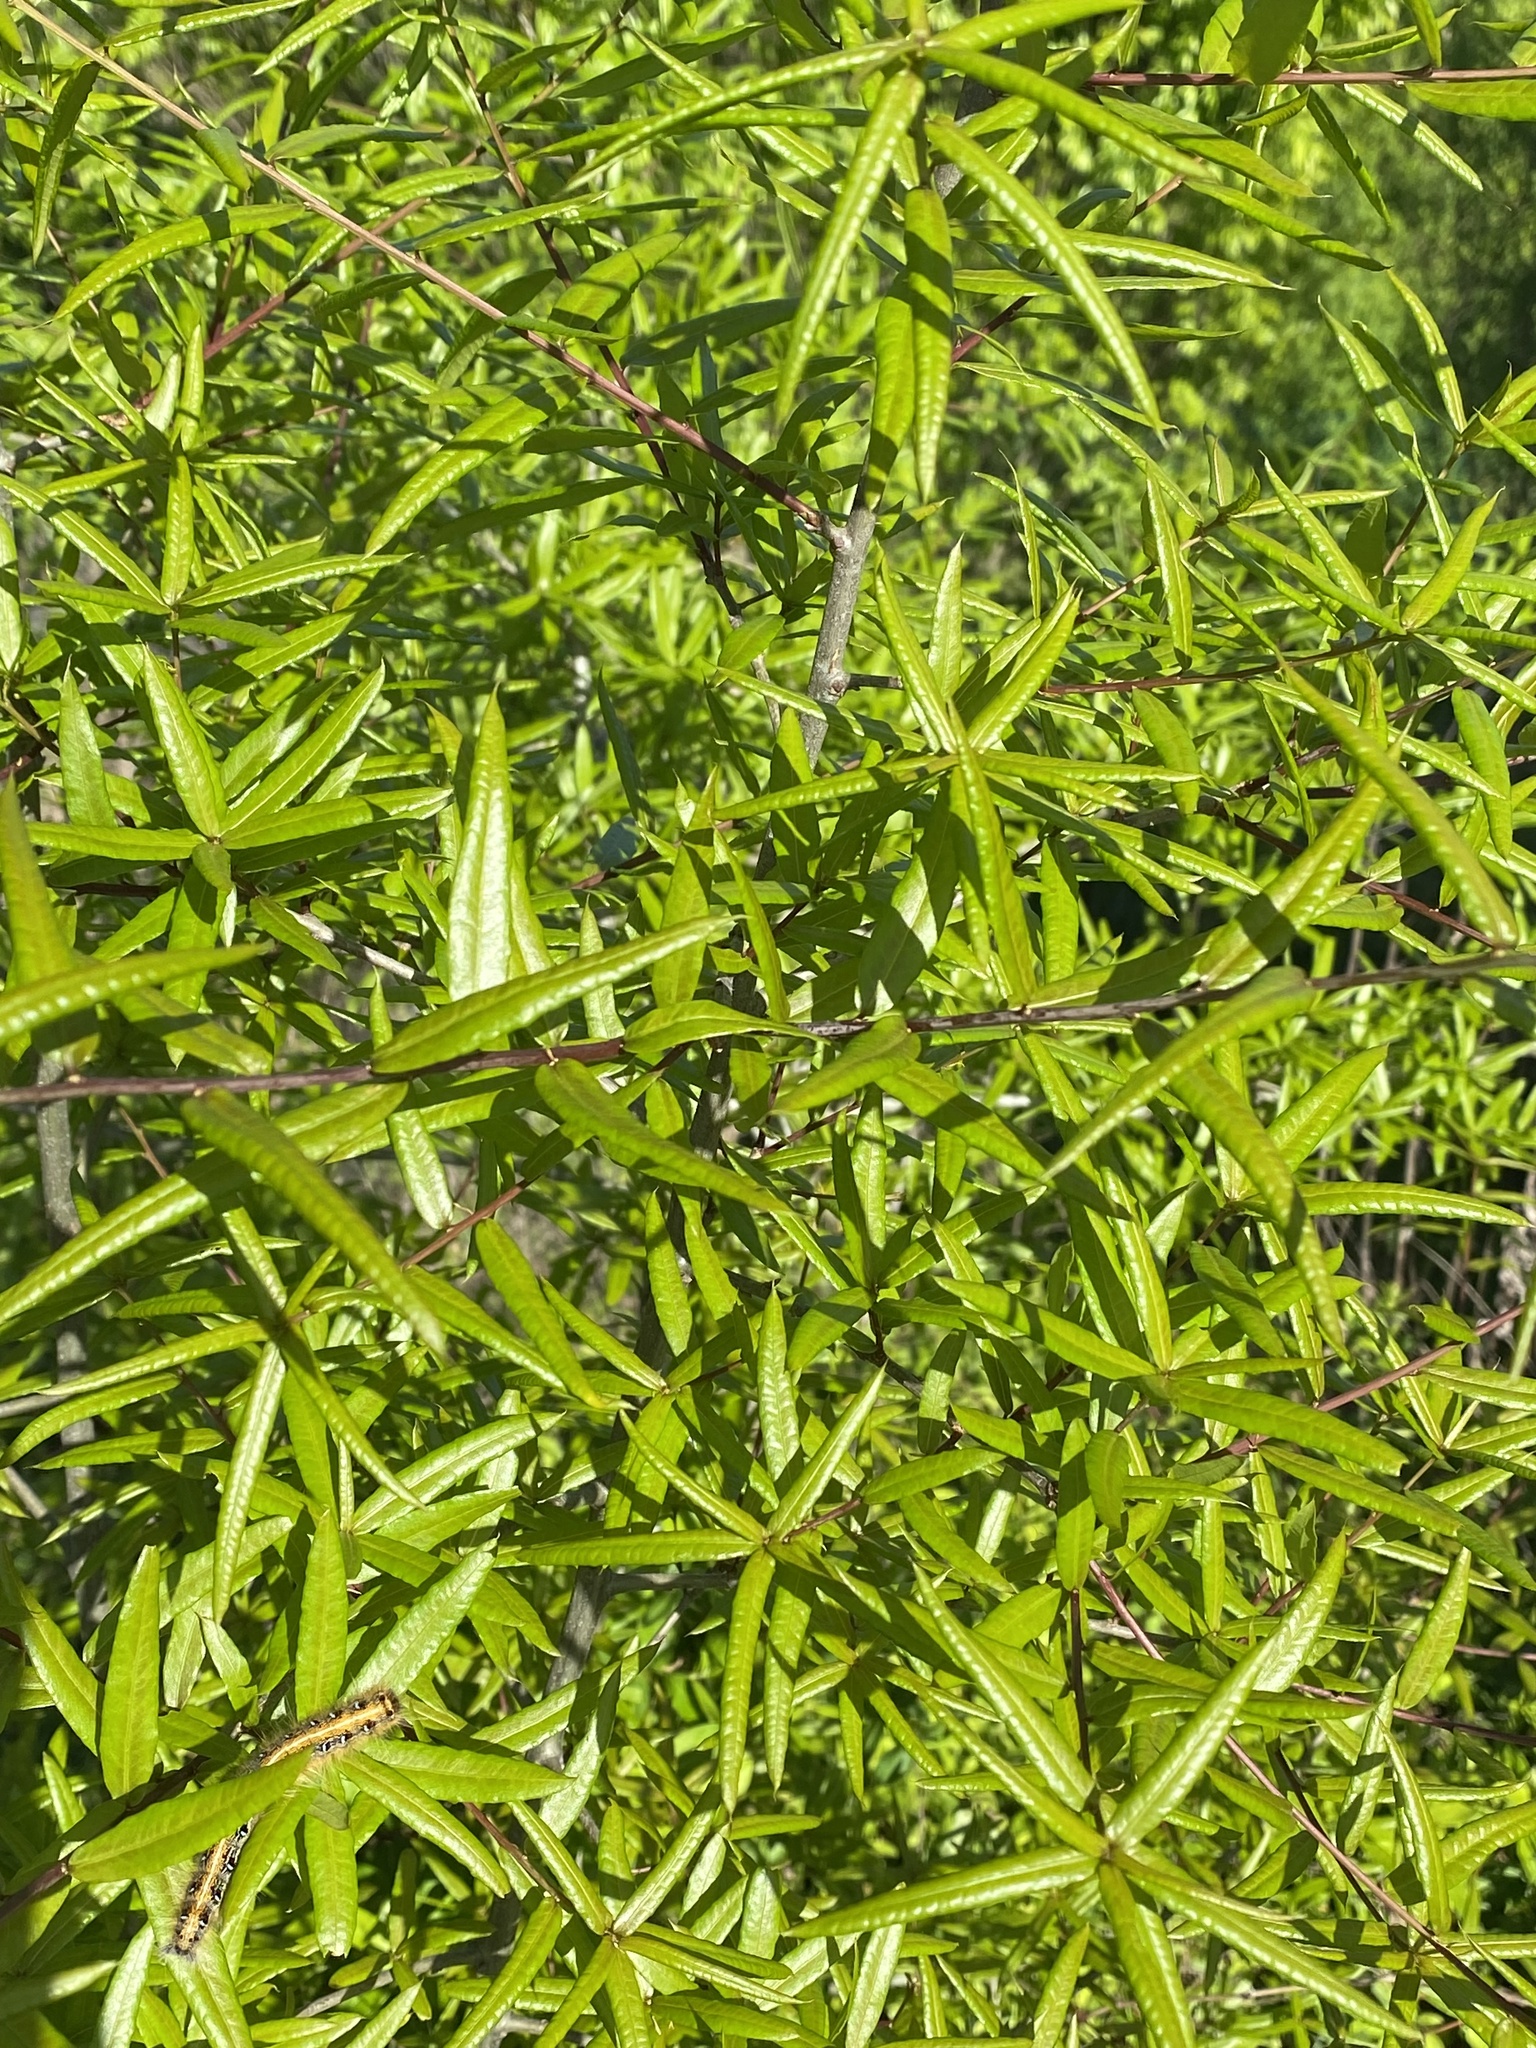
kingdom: Animalia
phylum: Arthropoda
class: Insecta
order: Lepidoptera
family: Lasiocampidae
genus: Malacosoma
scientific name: Malacosoma americana
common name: Eastern tent caterpillar moth
